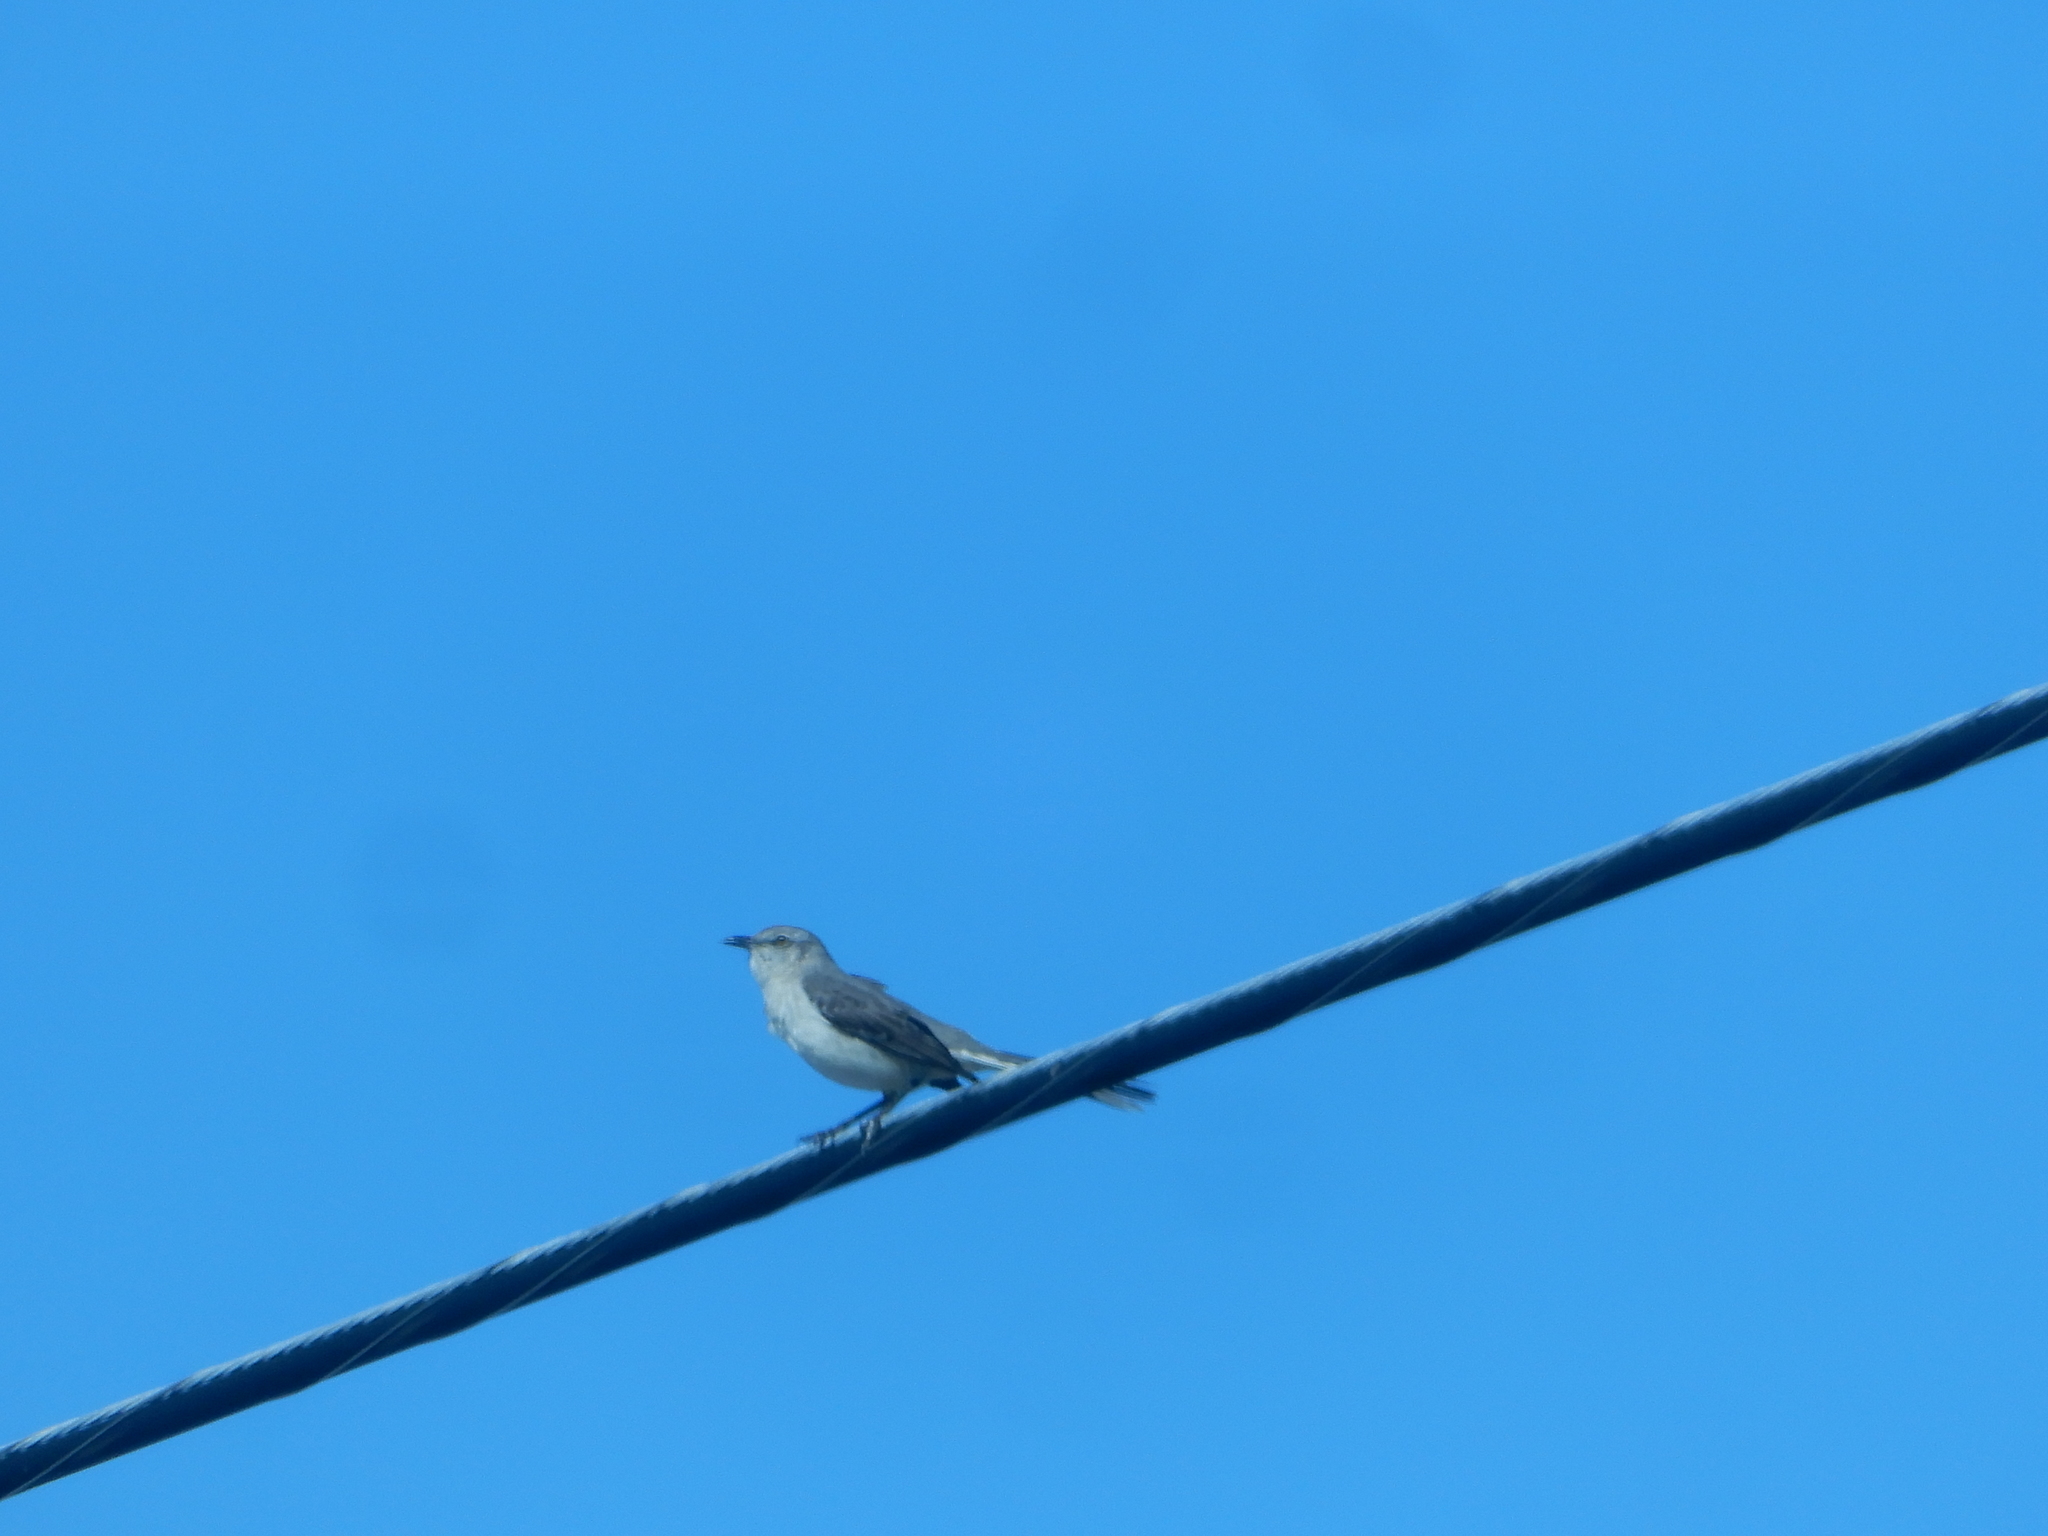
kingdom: Animalia
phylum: Chordata
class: Aves
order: Passeriformes
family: Mimidae
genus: Mimus
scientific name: Mimus polyglottos
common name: Northern mockingbird
